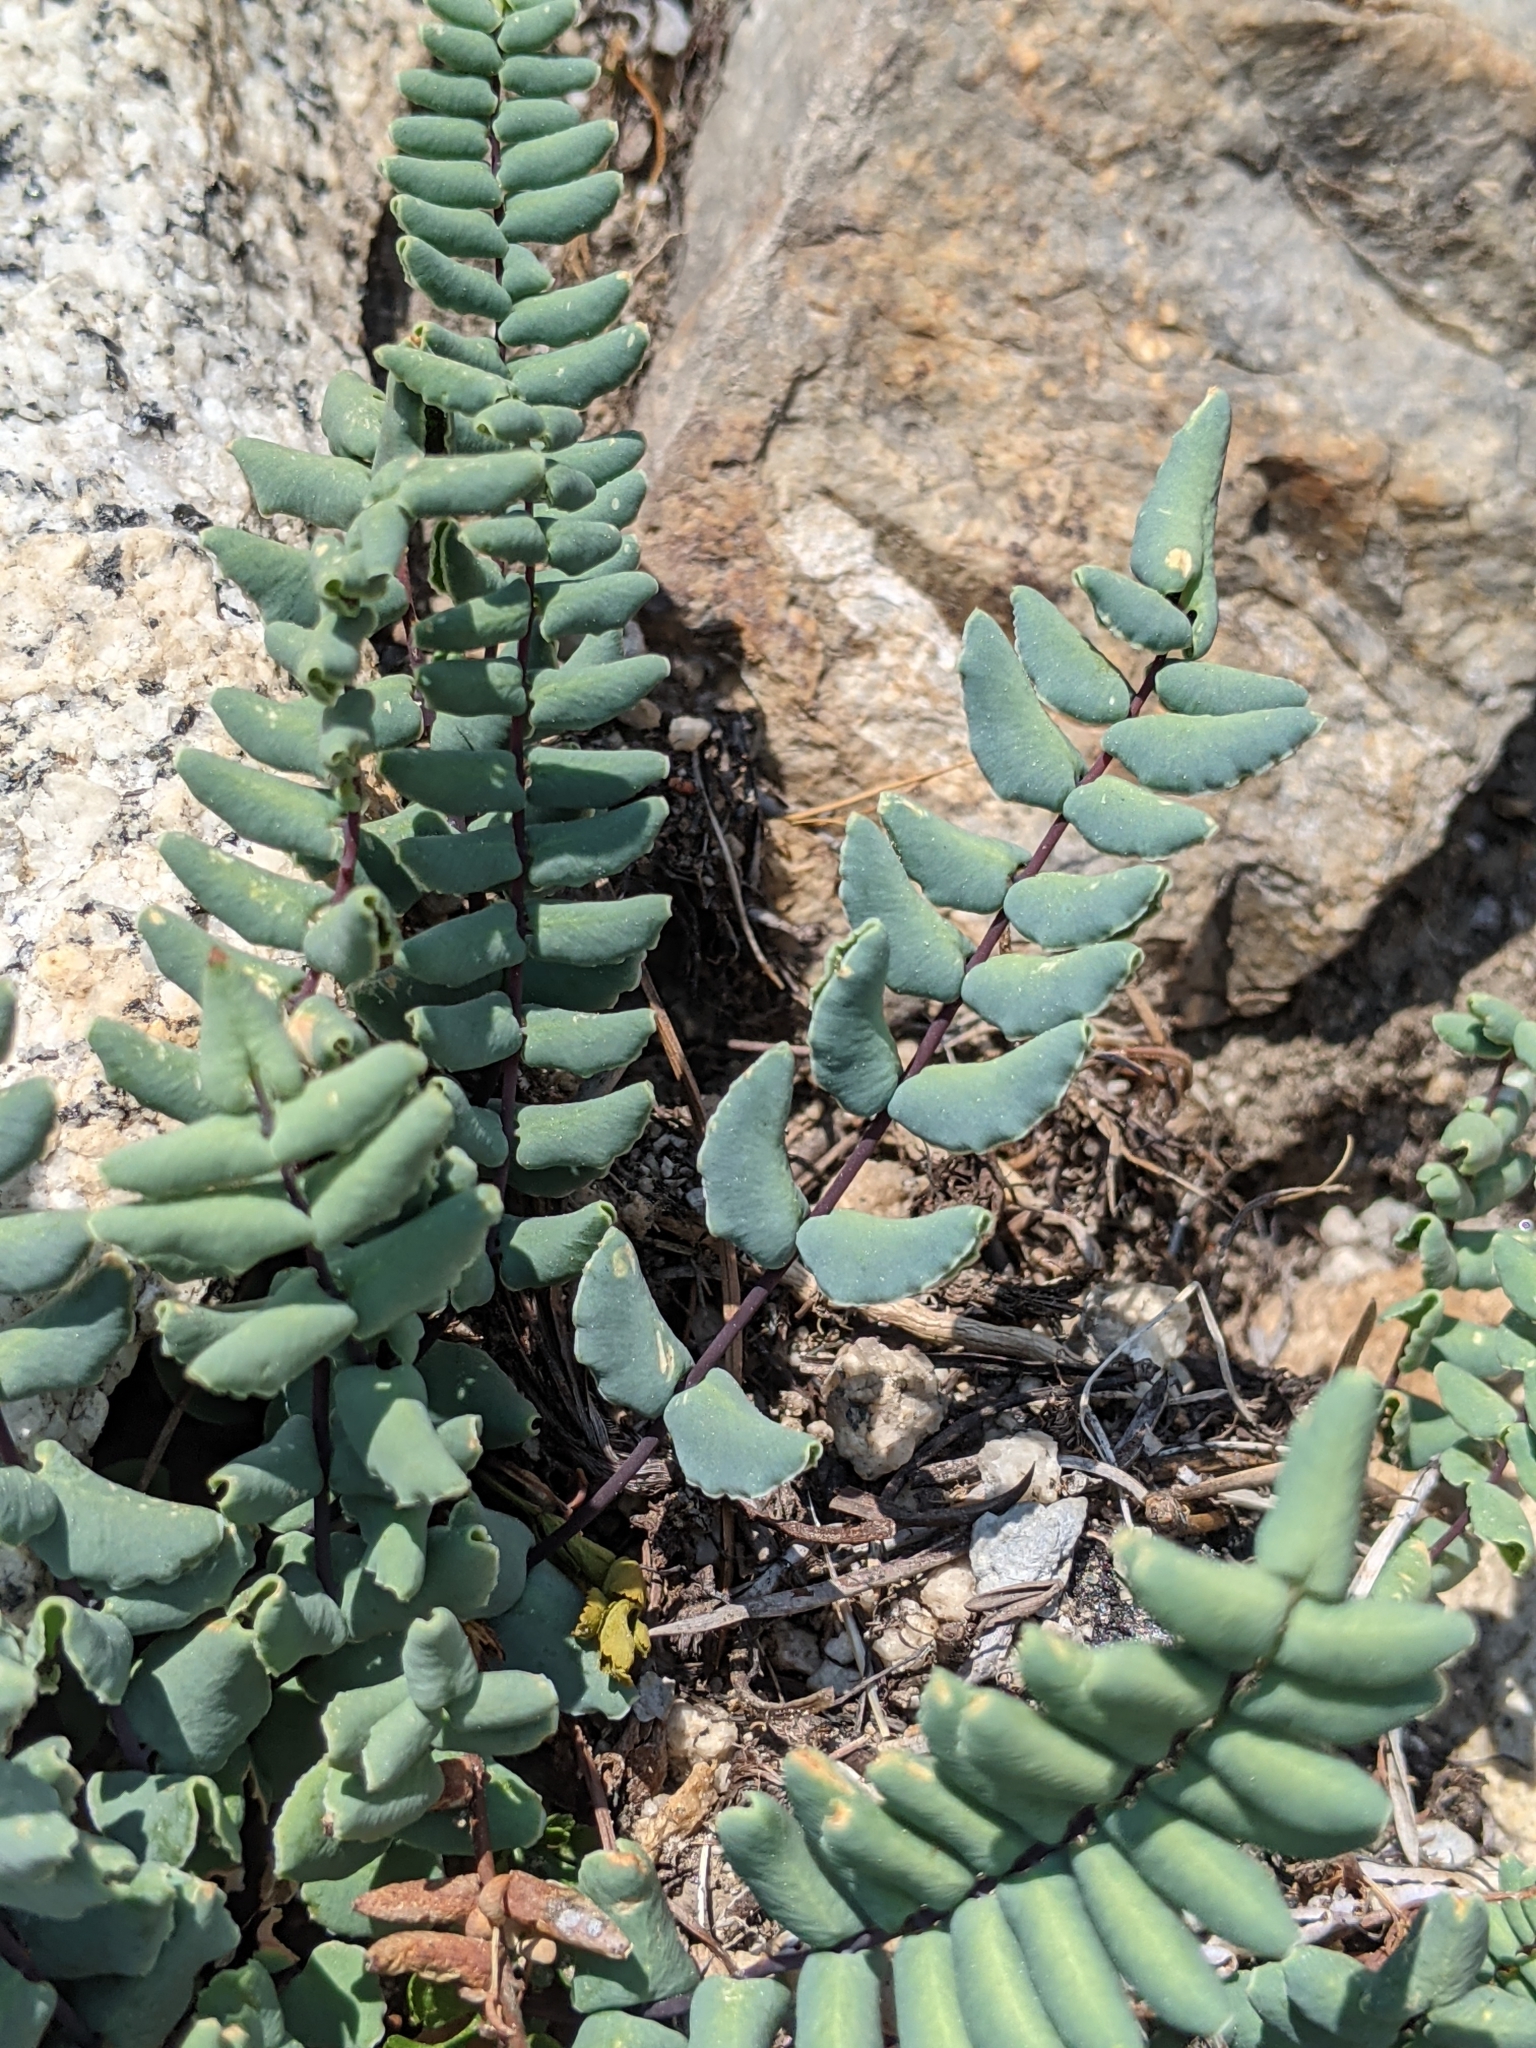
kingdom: Plantae
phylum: Tracheophyta
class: Polypodiopsida
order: Polypodiales
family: Pteridaceae
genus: Pellaea
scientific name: Pellaea bridgesii
